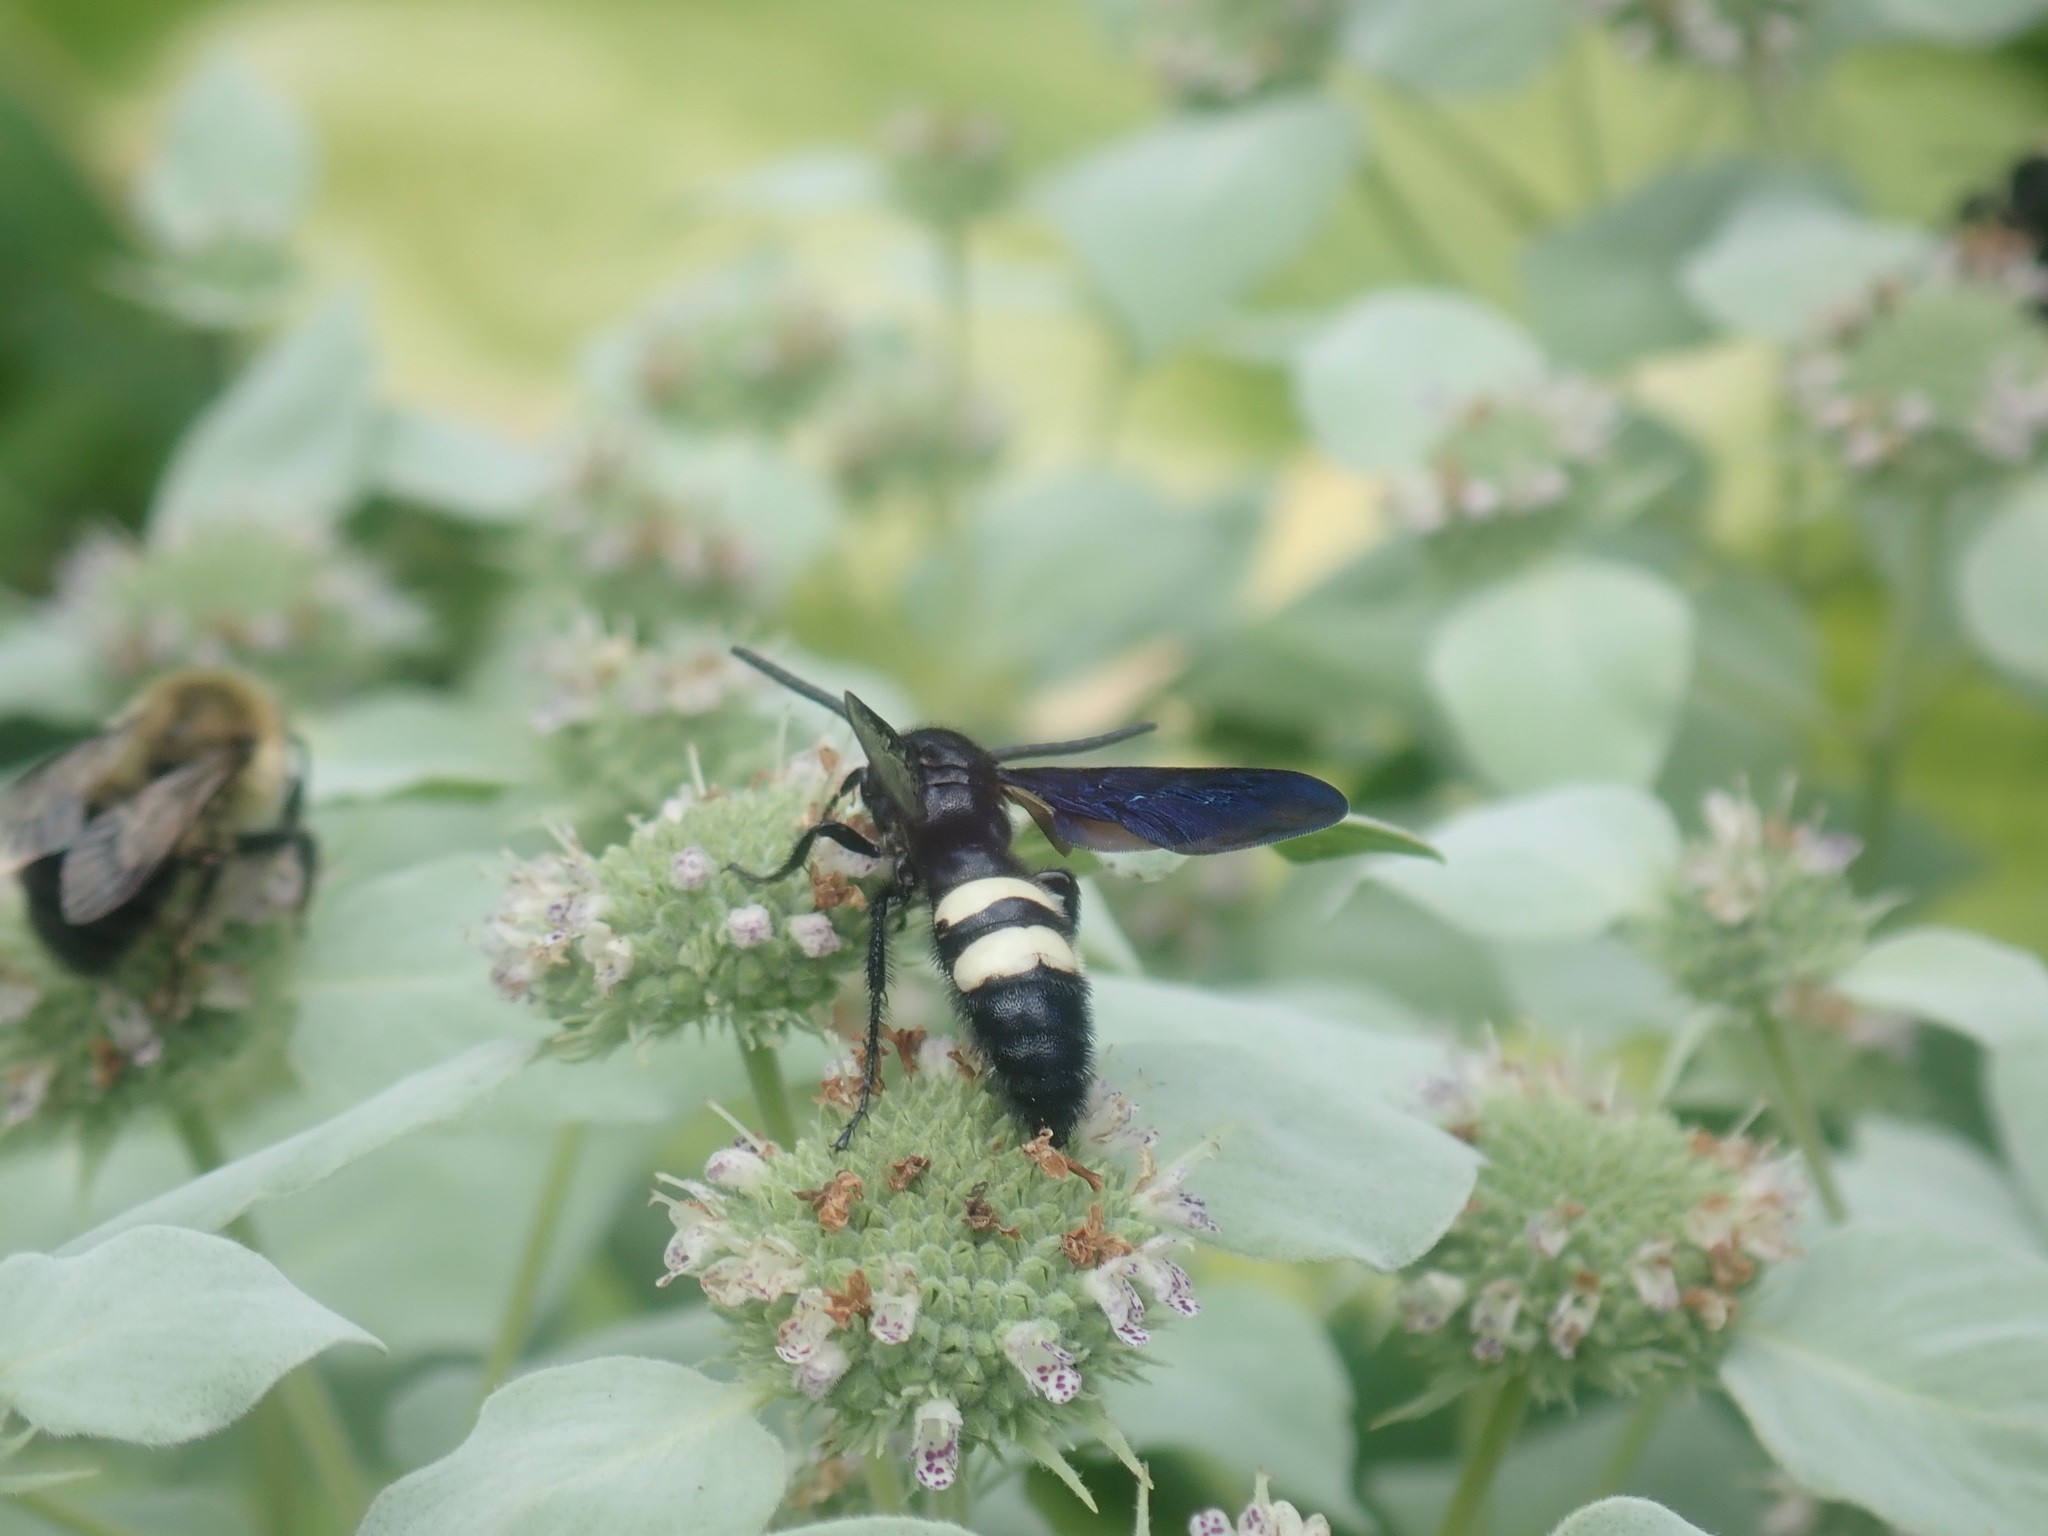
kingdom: Animalia
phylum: Arthropoda
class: Insecta
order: Hymenoptera
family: Scoliidae
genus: Scolia
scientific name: Scolia bicincta
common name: Double-banded scoliid wasp
